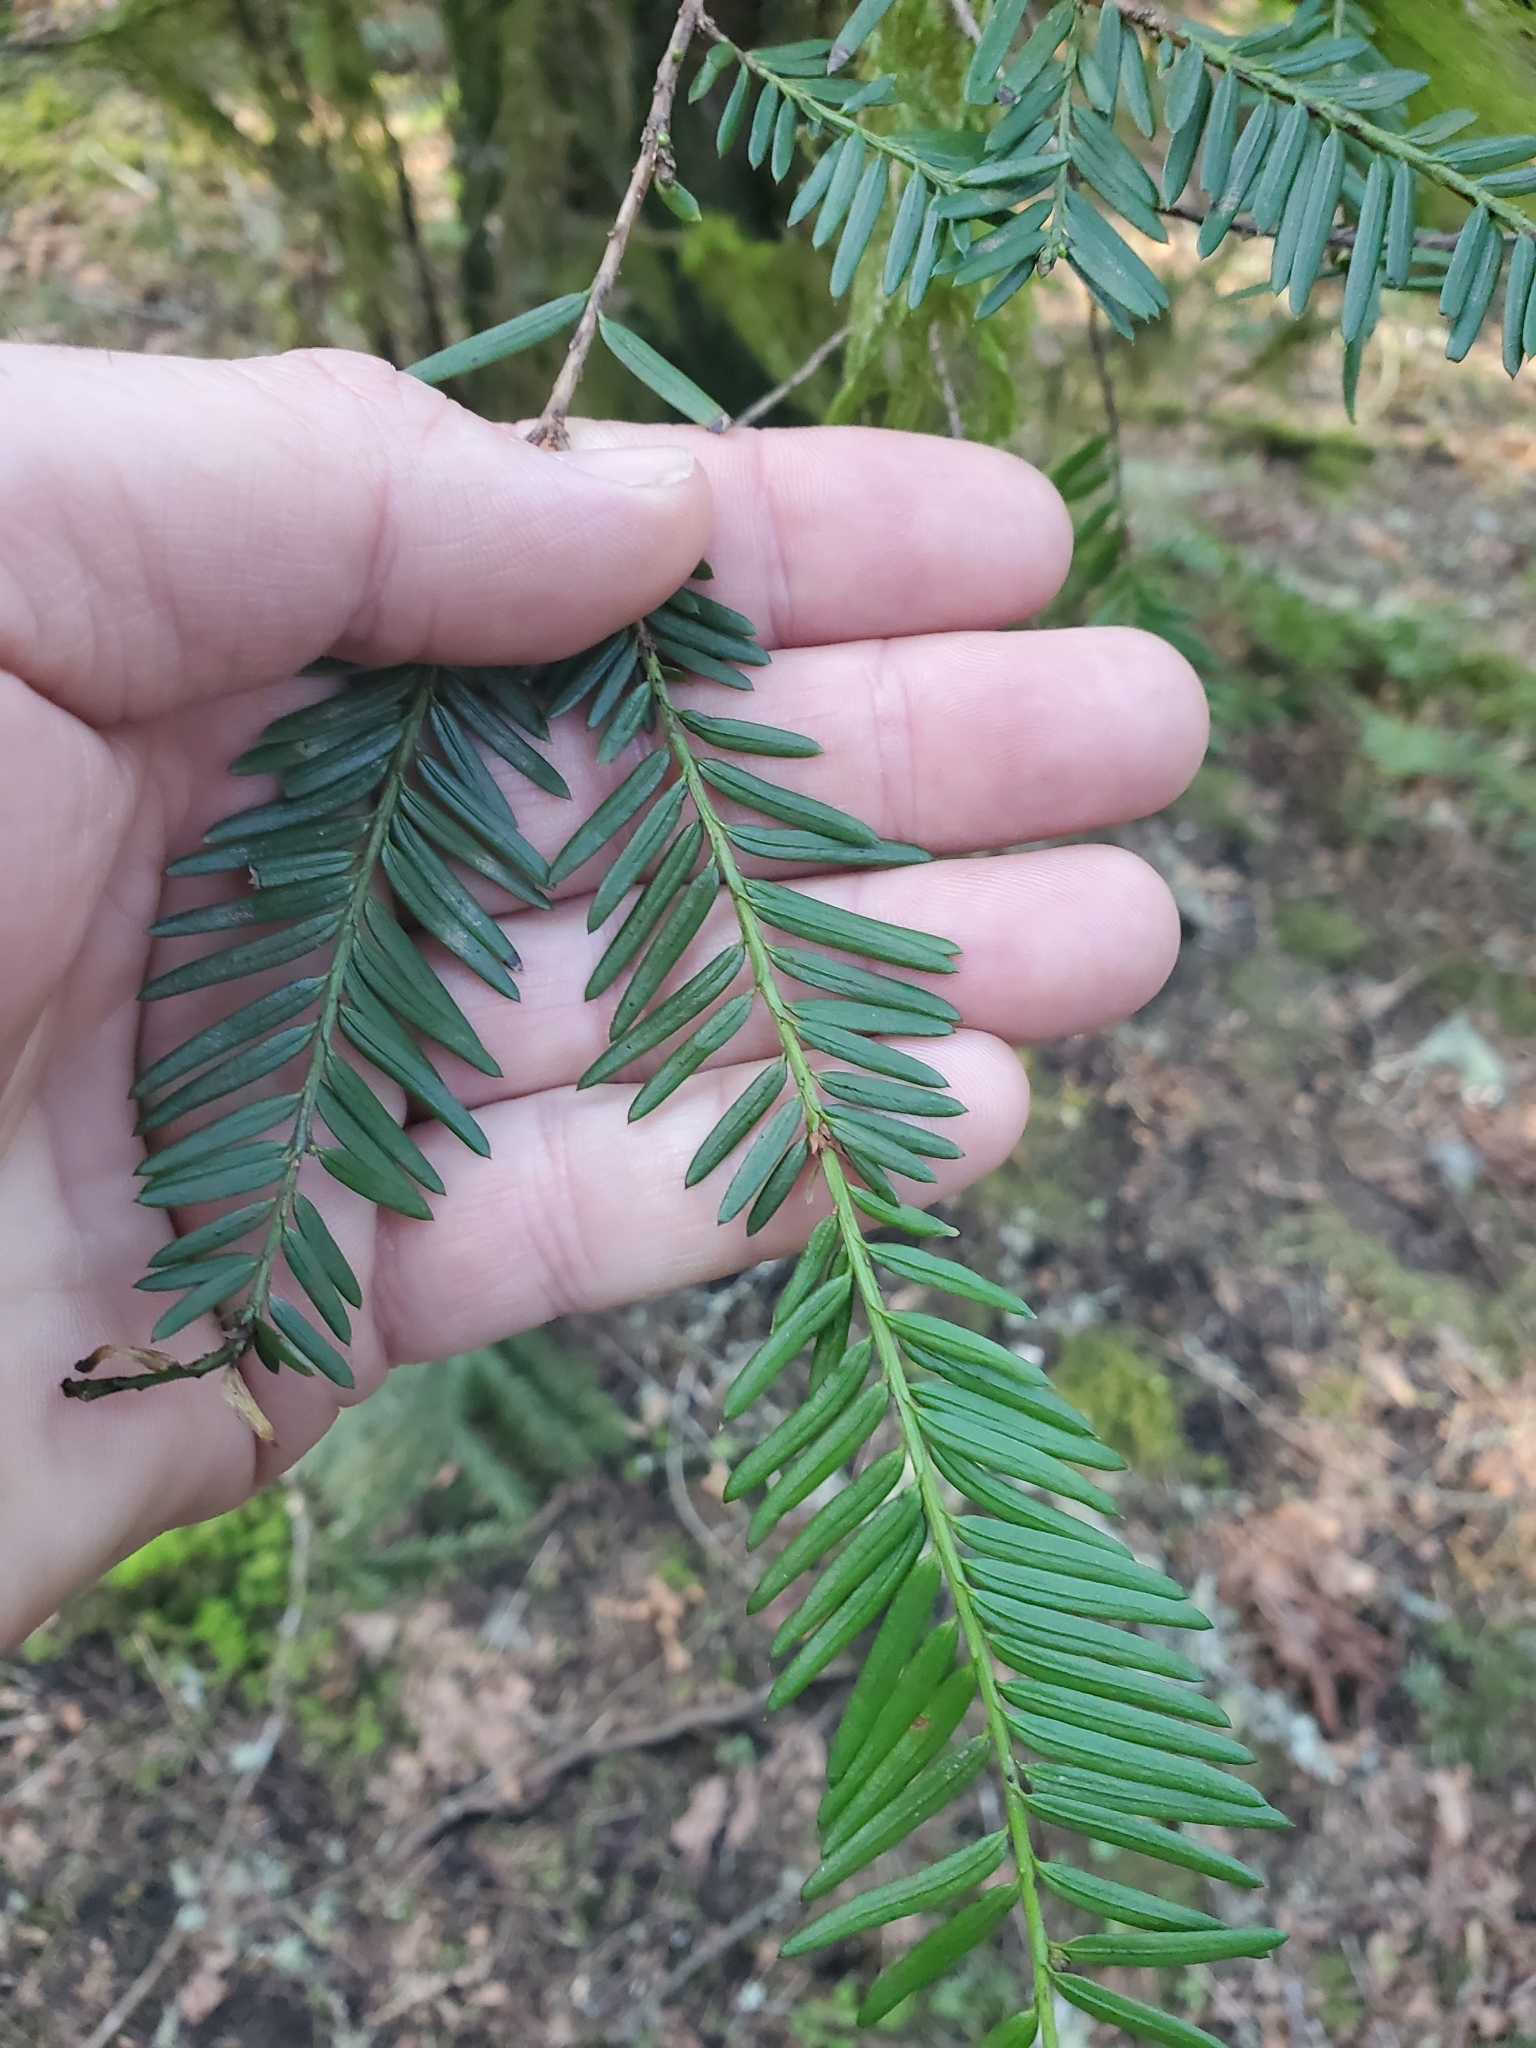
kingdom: Plantae
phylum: Tracheophyta
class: Pinopsida
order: Pinales
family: Taxaceae
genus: Taxus
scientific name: Taxus brevifolia
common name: Pacific yew
